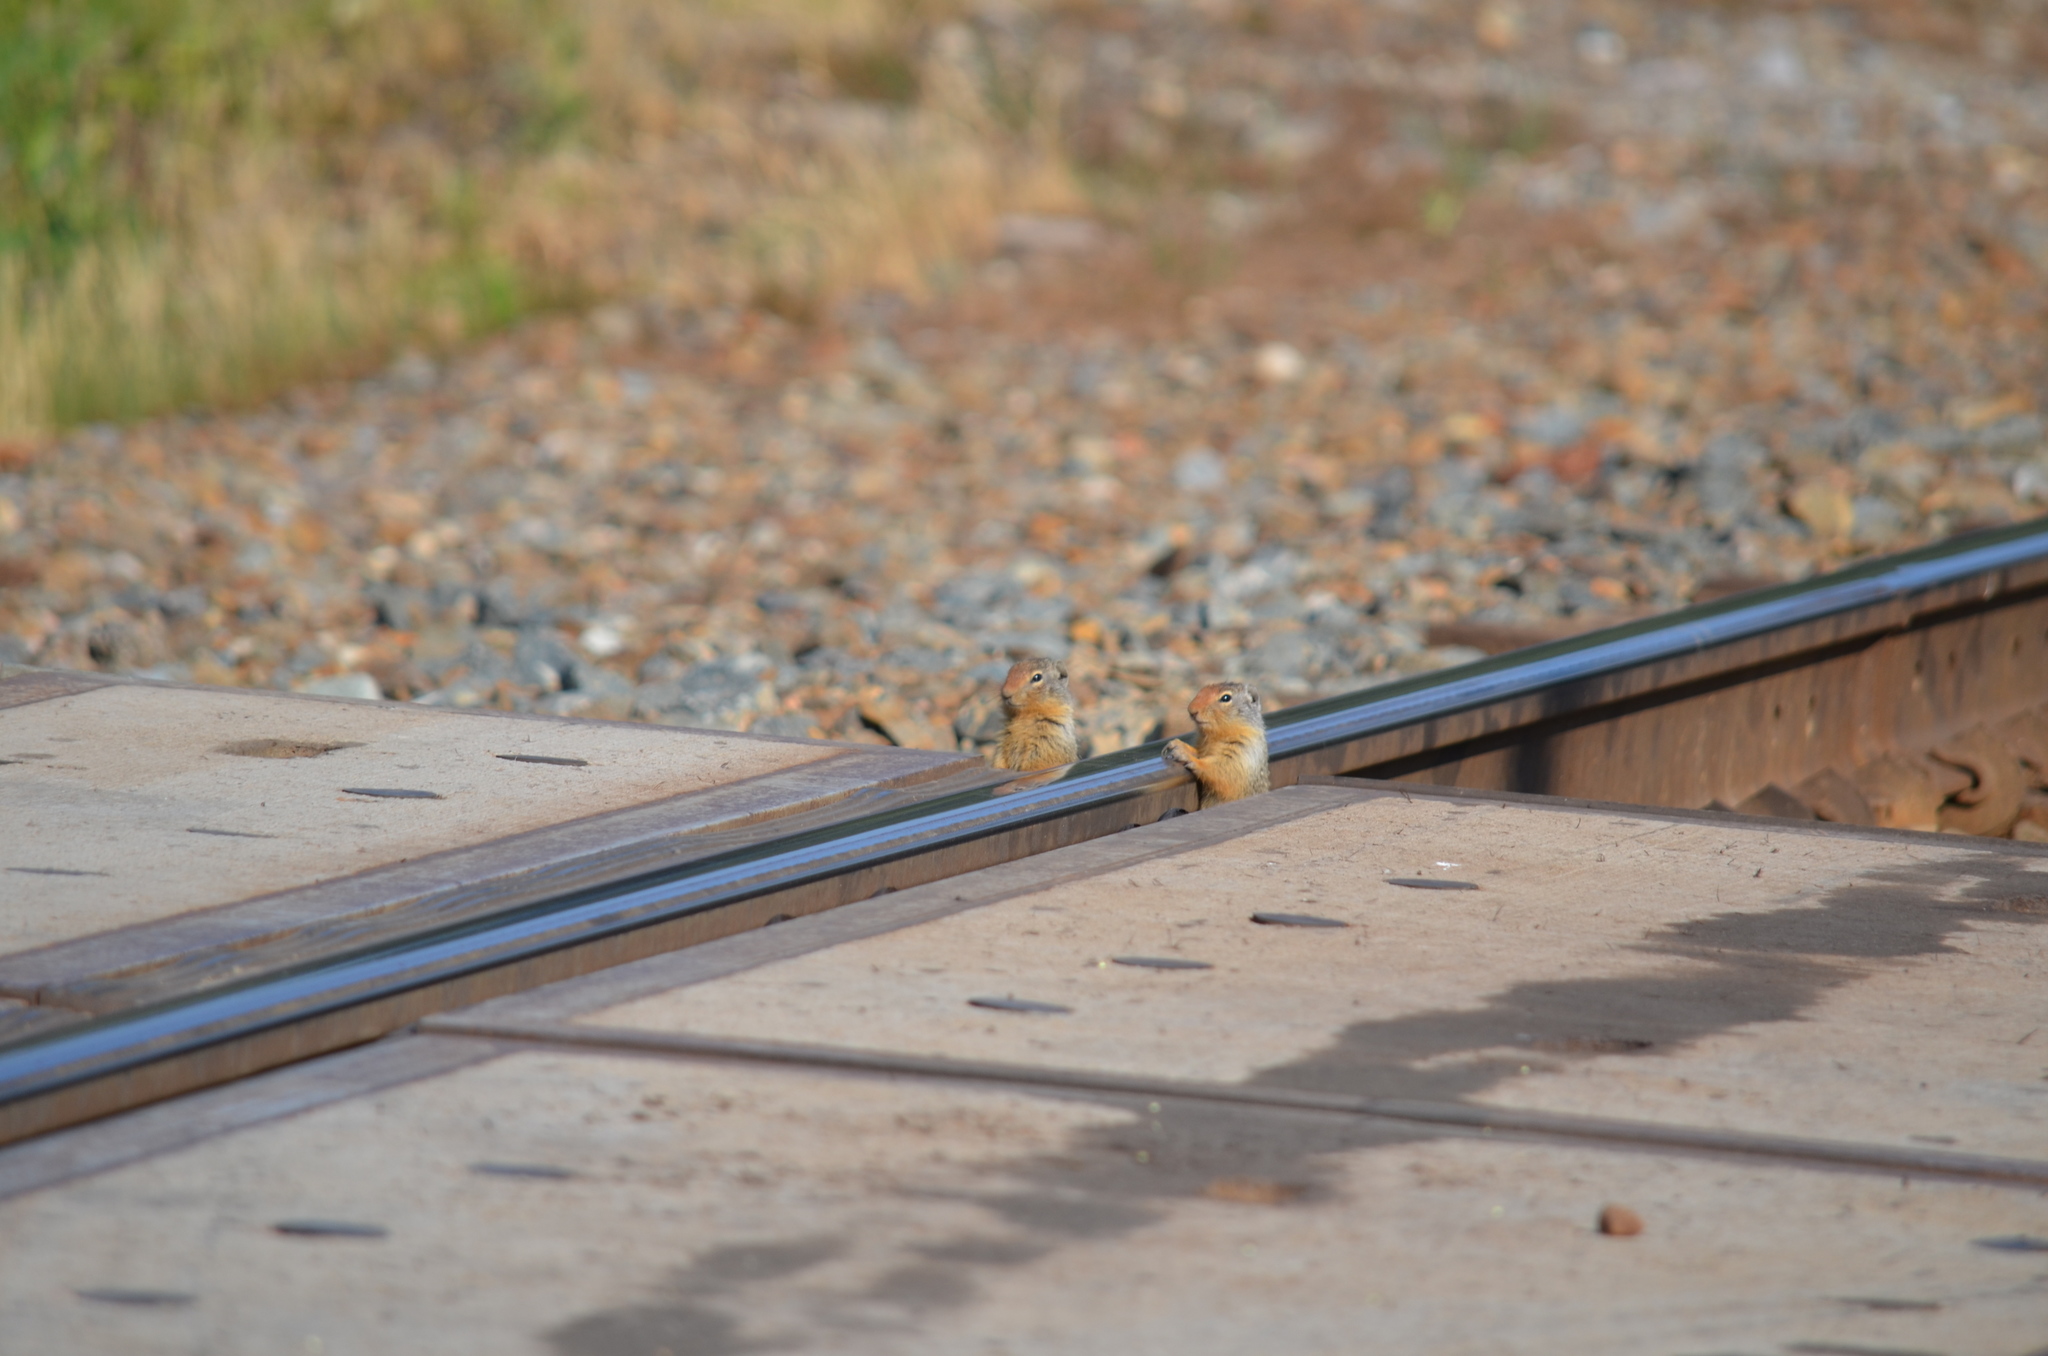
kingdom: Animalia
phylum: Chordata
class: Mammalia
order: Rodentia
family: Sciuridae
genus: Urocitellus
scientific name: Urocitellus columbianus
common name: Columbian ground squirrel
